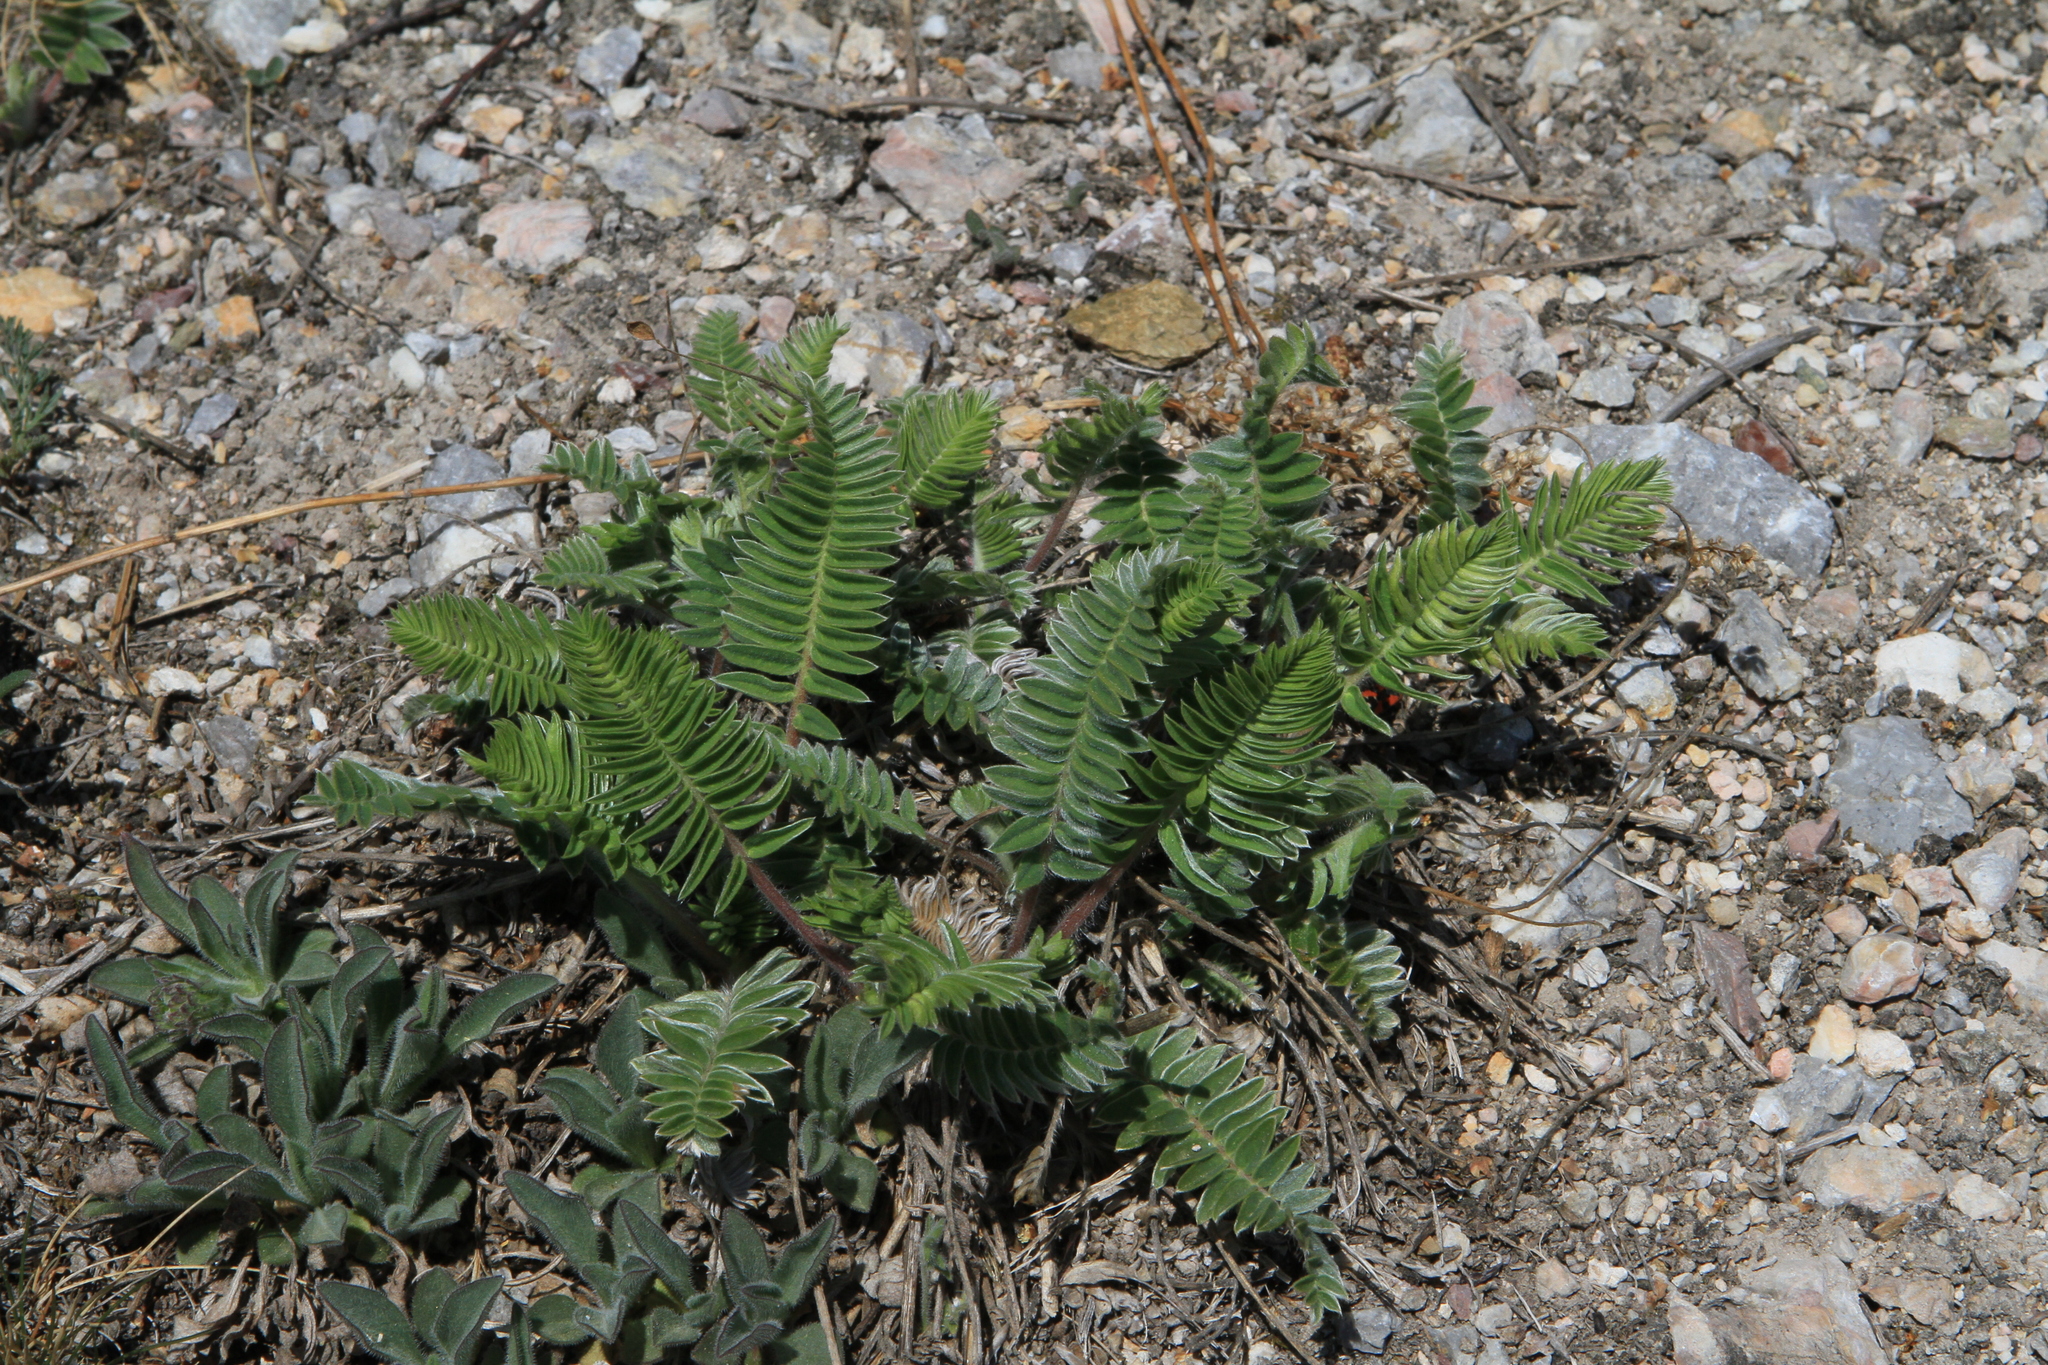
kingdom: Plantae
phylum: Tracheophyta
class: Magnoliopsida
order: Fabales
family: Fabaceae
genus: Oxytropis
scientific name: Oxytropis campanulata
